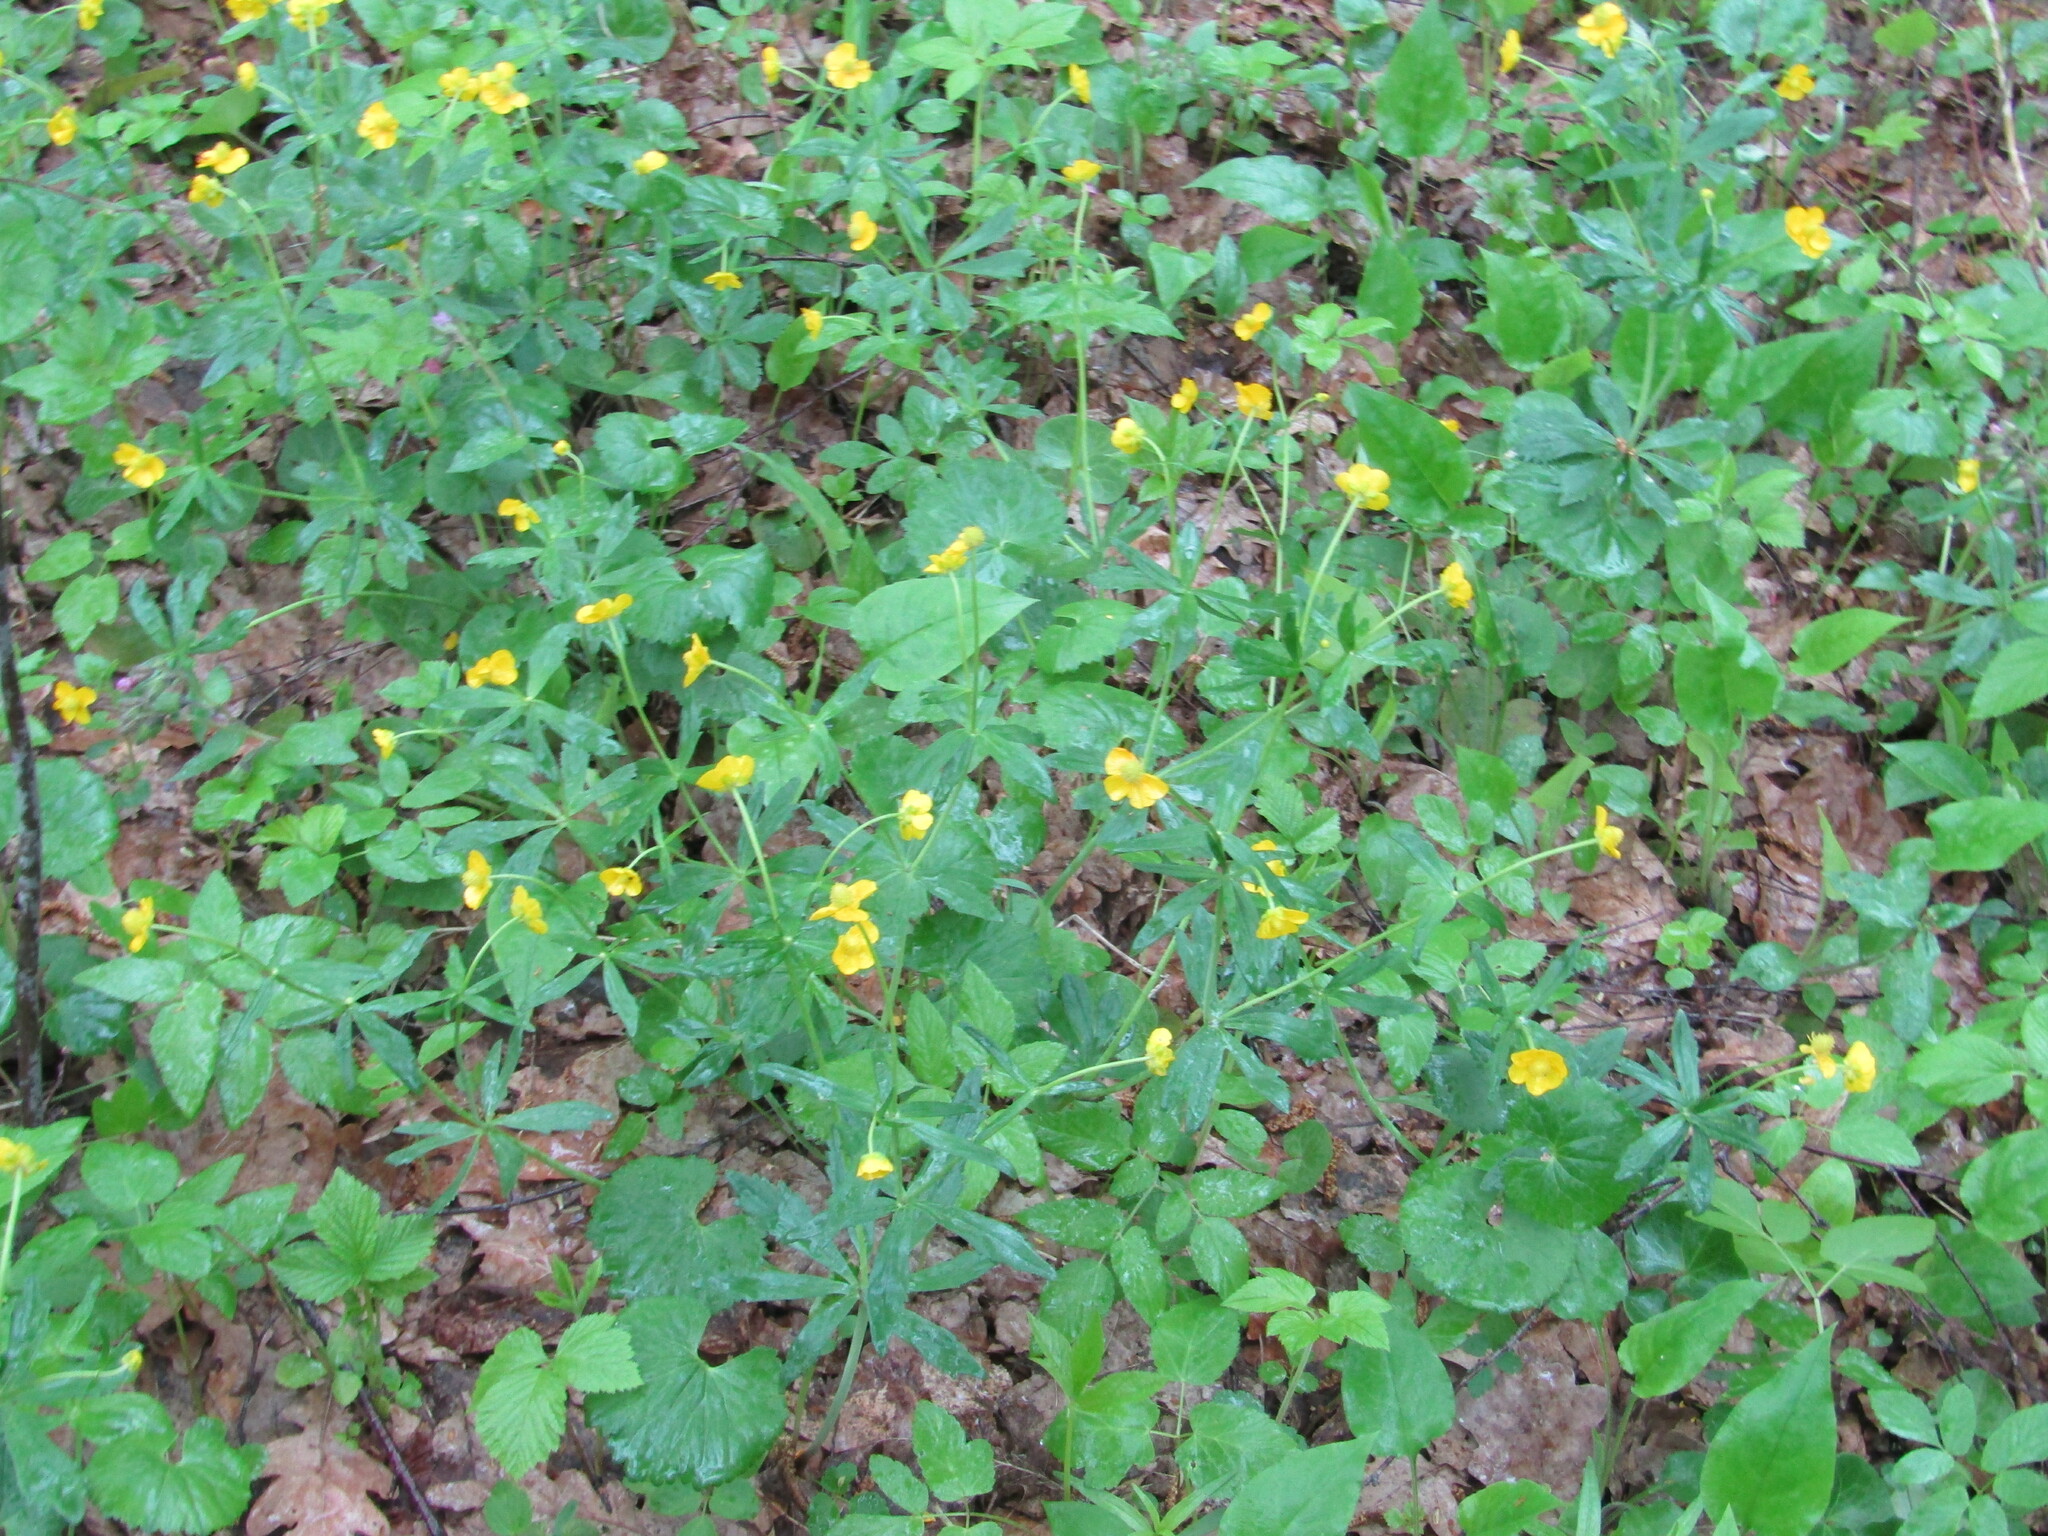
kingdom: Plantae
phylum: Tracheophyta
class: Magnoliopsida
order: Ranunculales
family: Ranunculaceae
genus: Ranunculus
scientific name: Ranunculus cassubicus
